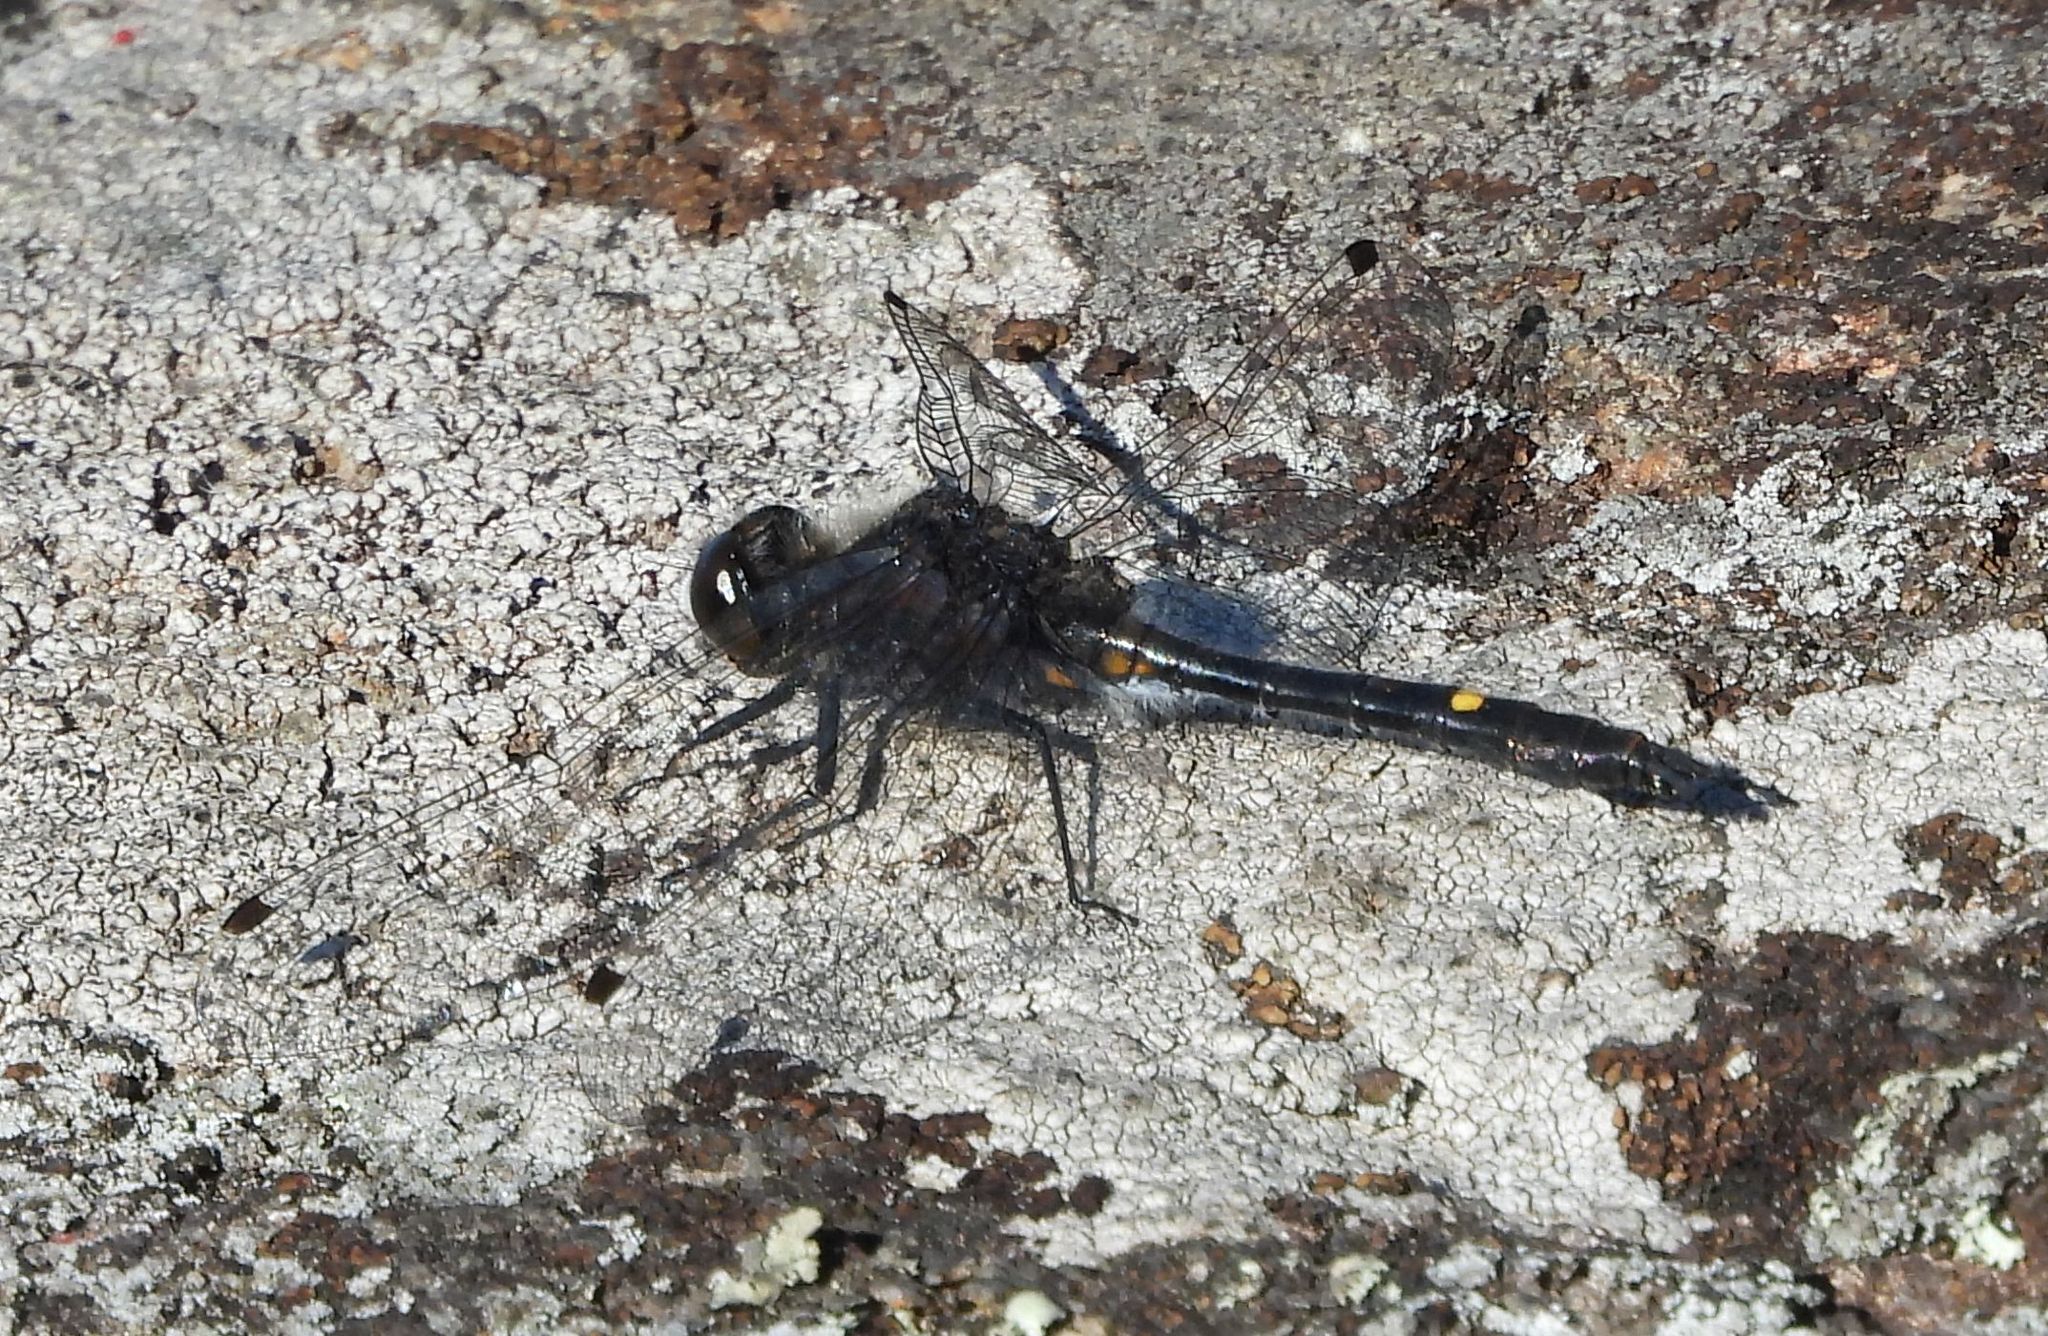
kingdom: Animalia
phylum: Arthropoda
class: Insecta
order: Odonata
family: Libellulidae
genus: Leucorrhinia
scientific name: Leucorrhinia intacta
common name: Dot-tailed whiteface
